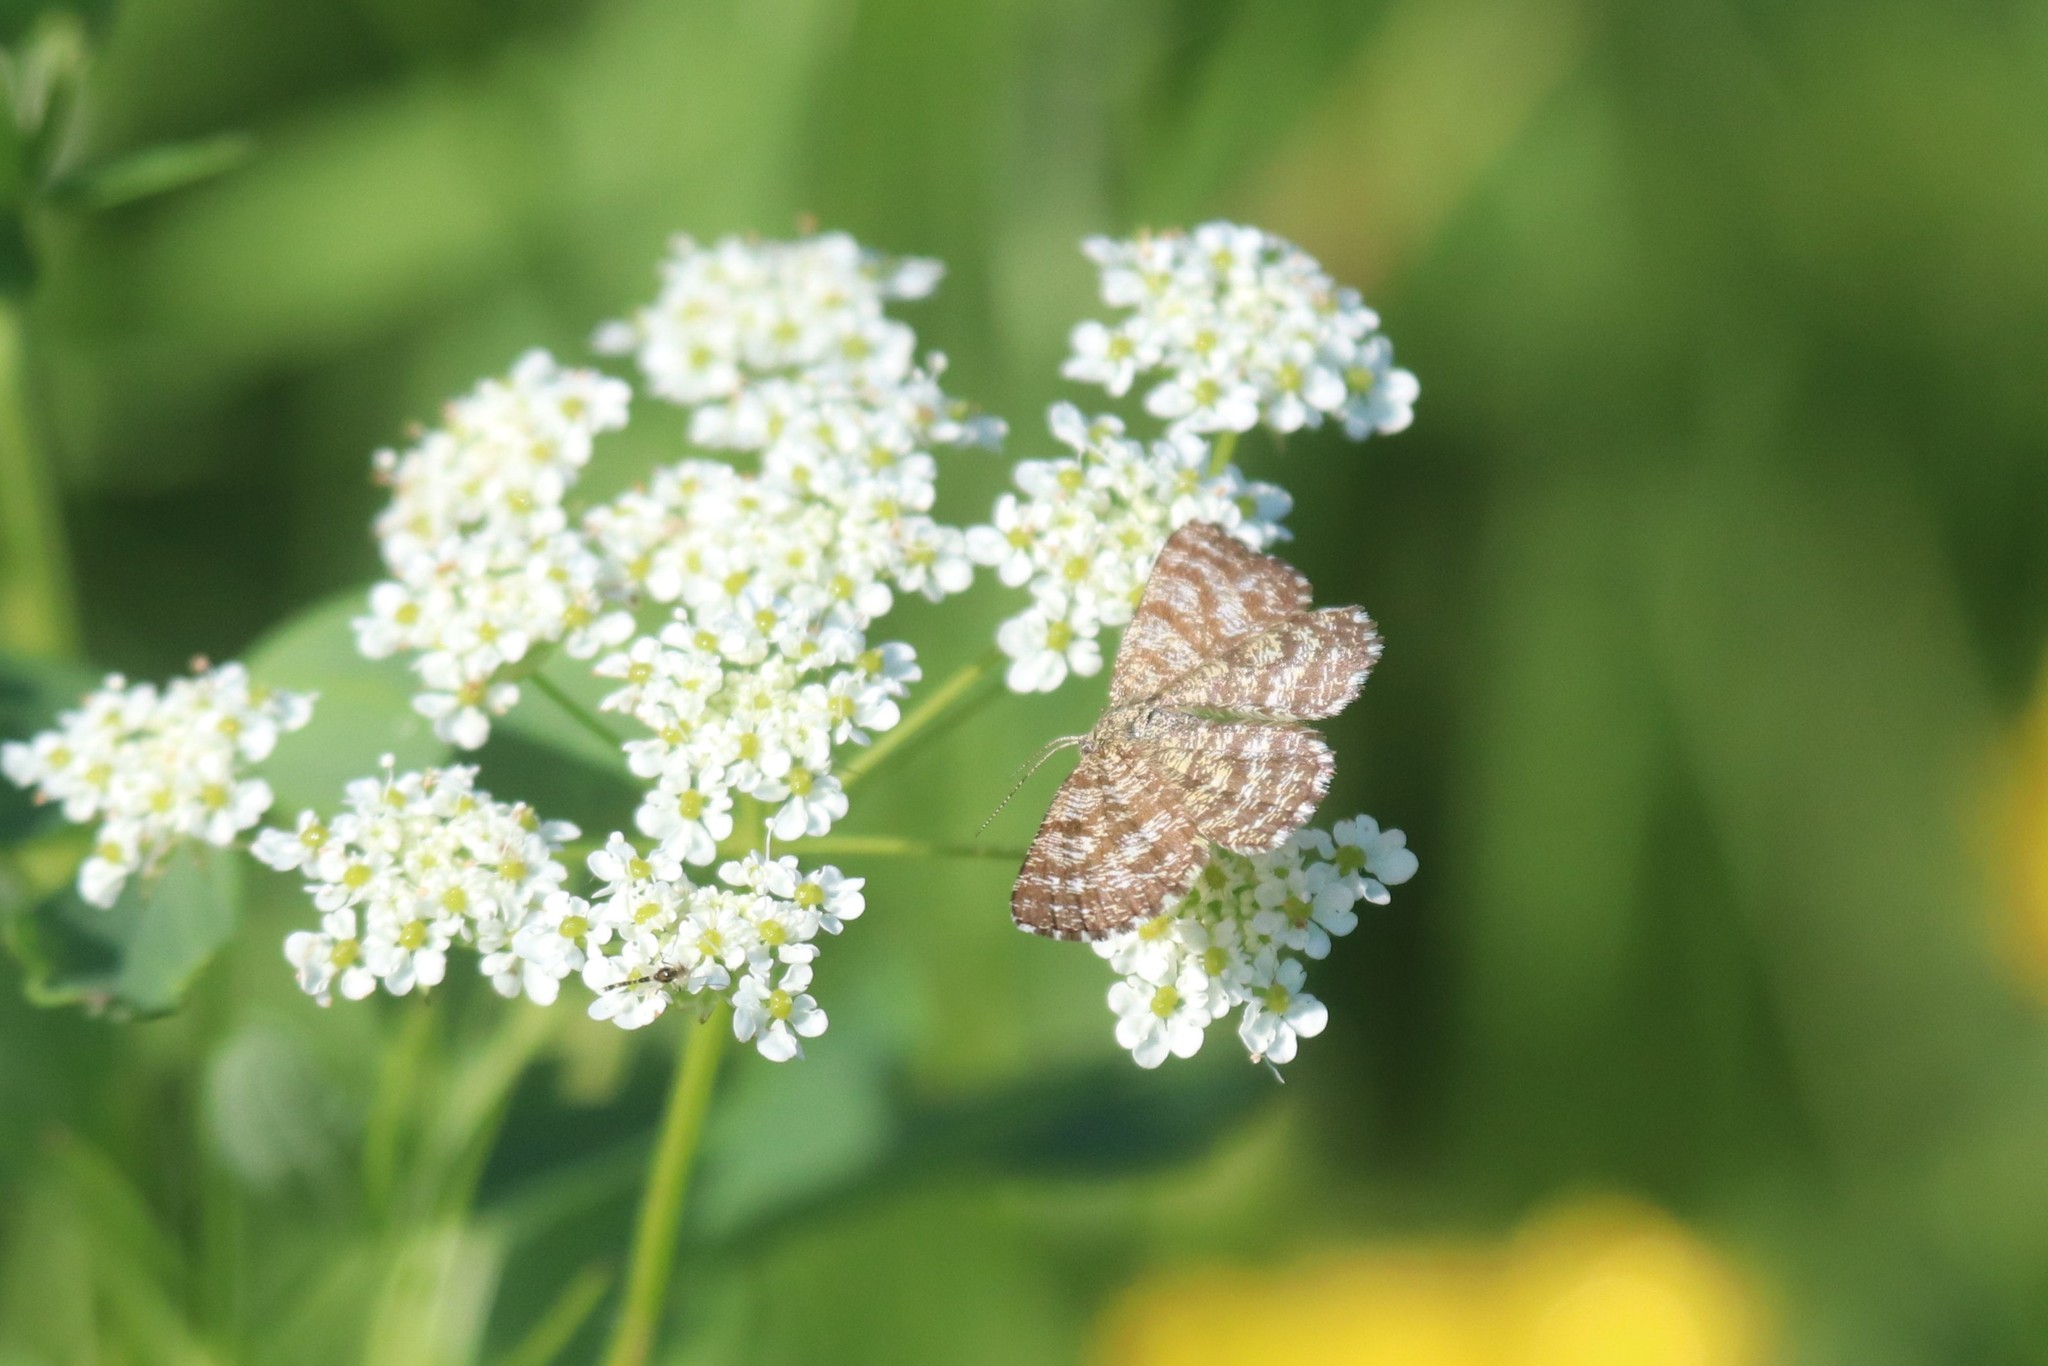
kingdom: Animalia
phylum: Arthropoda
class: Insecta
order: Lepidoptera
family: Geometridae
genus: Ematurga
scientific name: Ematurga atomaria
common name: Common heath
